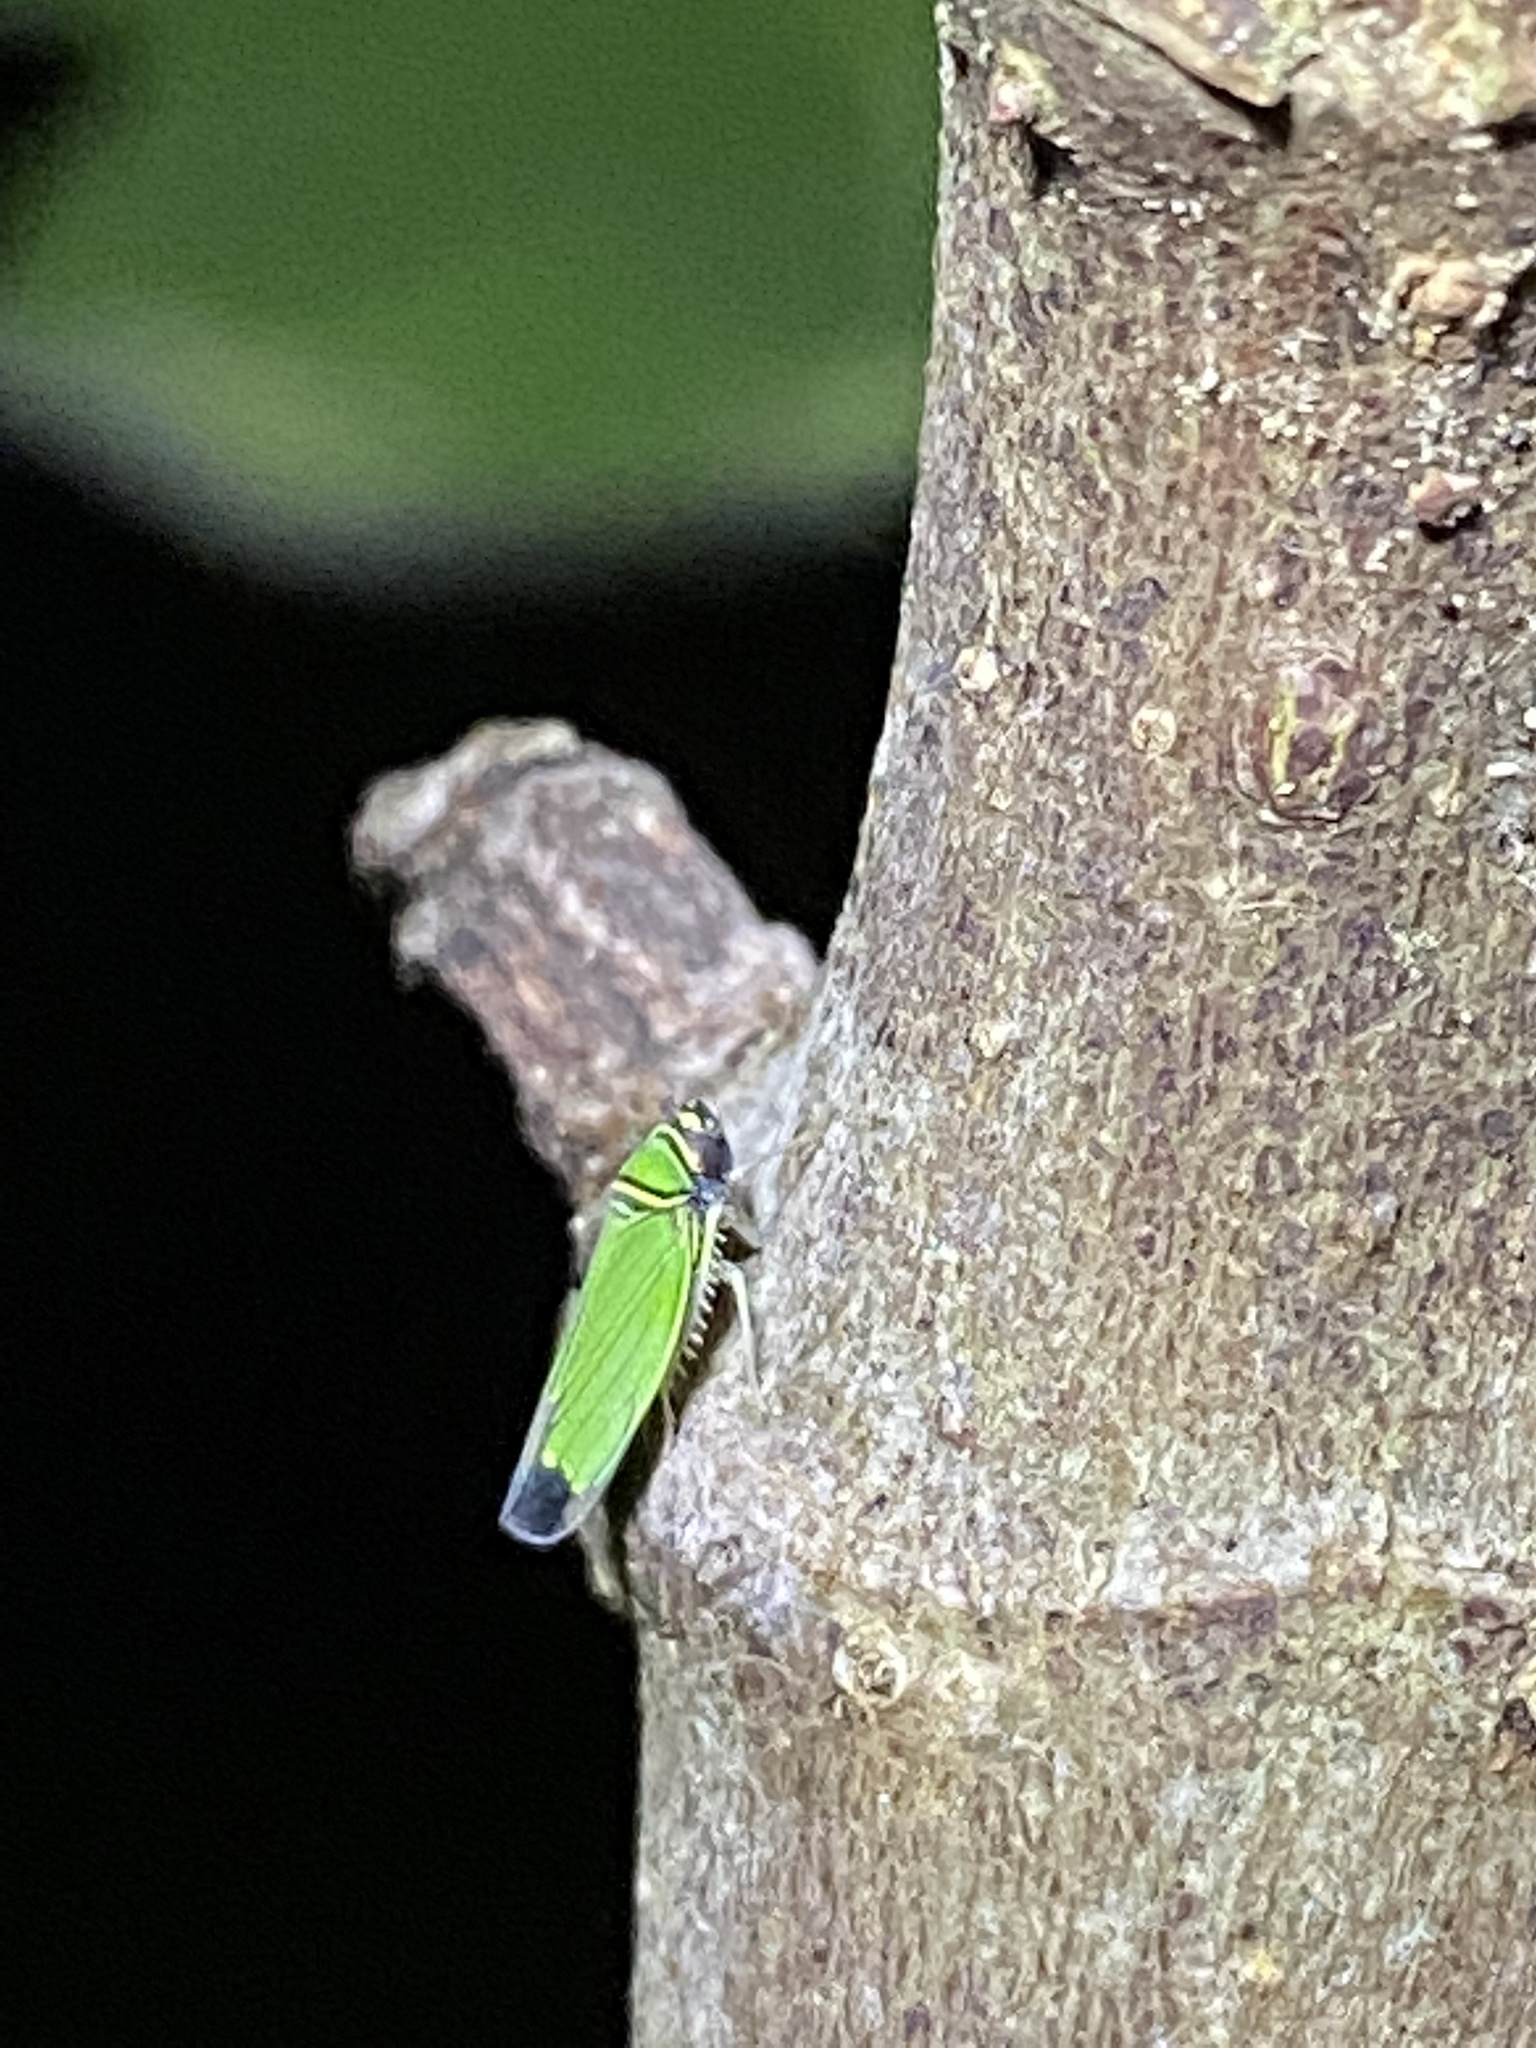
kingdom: Animalia
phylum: Arthropoda
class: Insecta
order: Hemiptera
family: Cicadellidae
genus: Tylozygus
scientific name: Tylozygus geometricus
